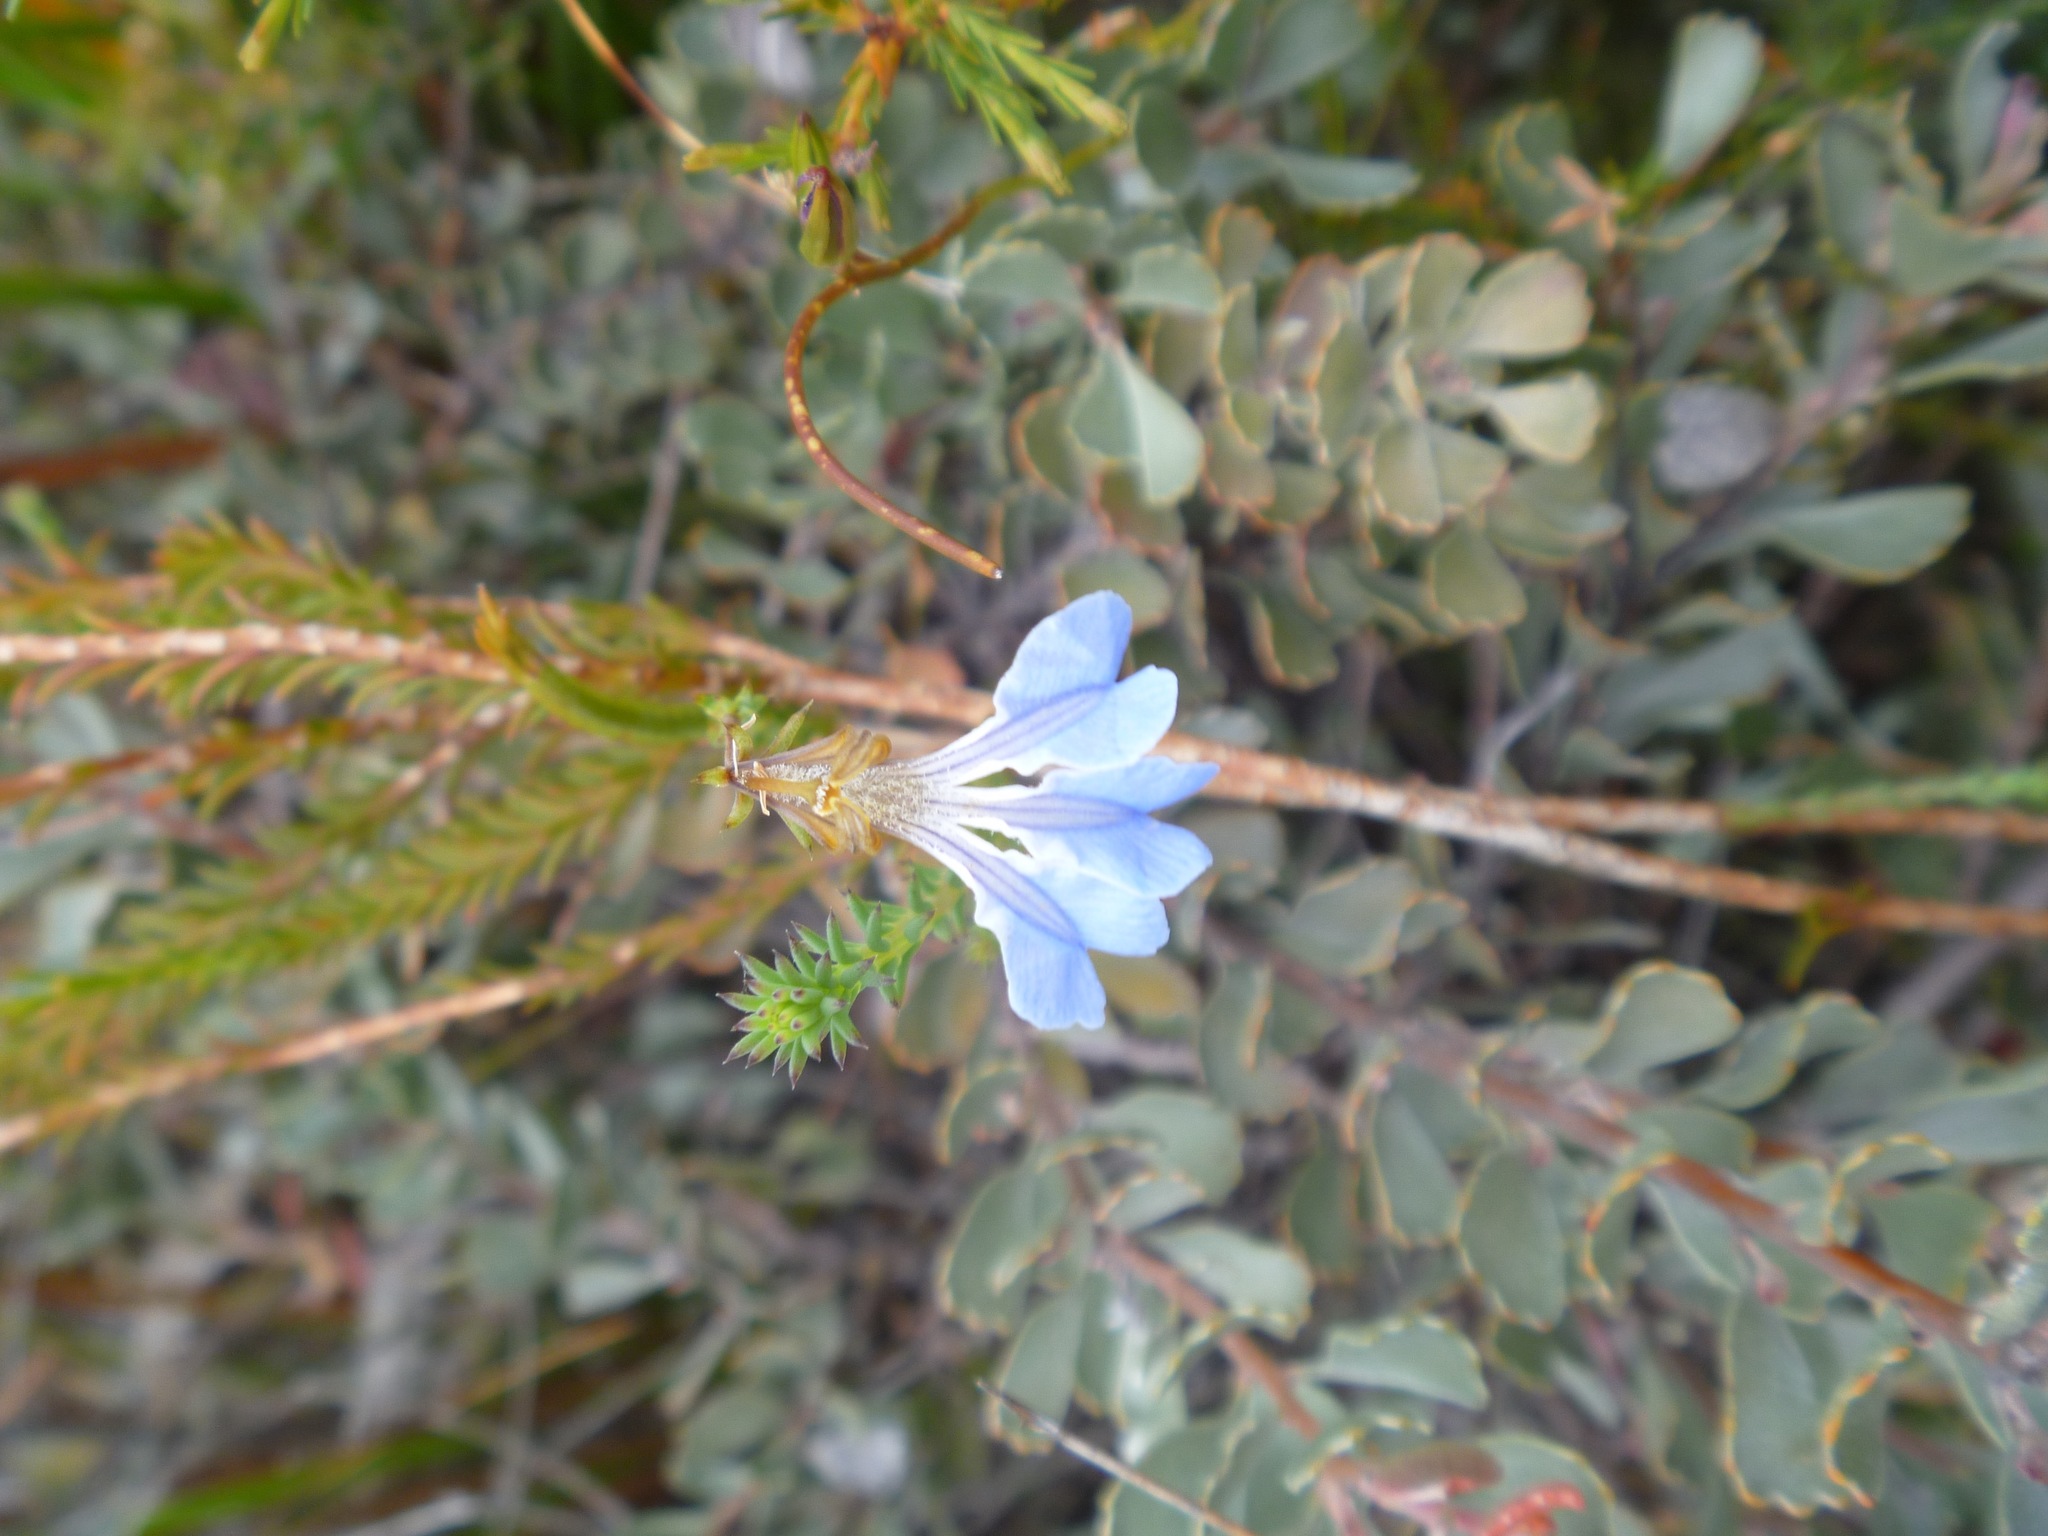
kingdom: Plantae
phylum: Tracheophyta
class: Magnoliopsida
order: Asterales
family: Goodeniaceae
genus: Lechenaultia
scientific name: Lechenaultia heteromera
